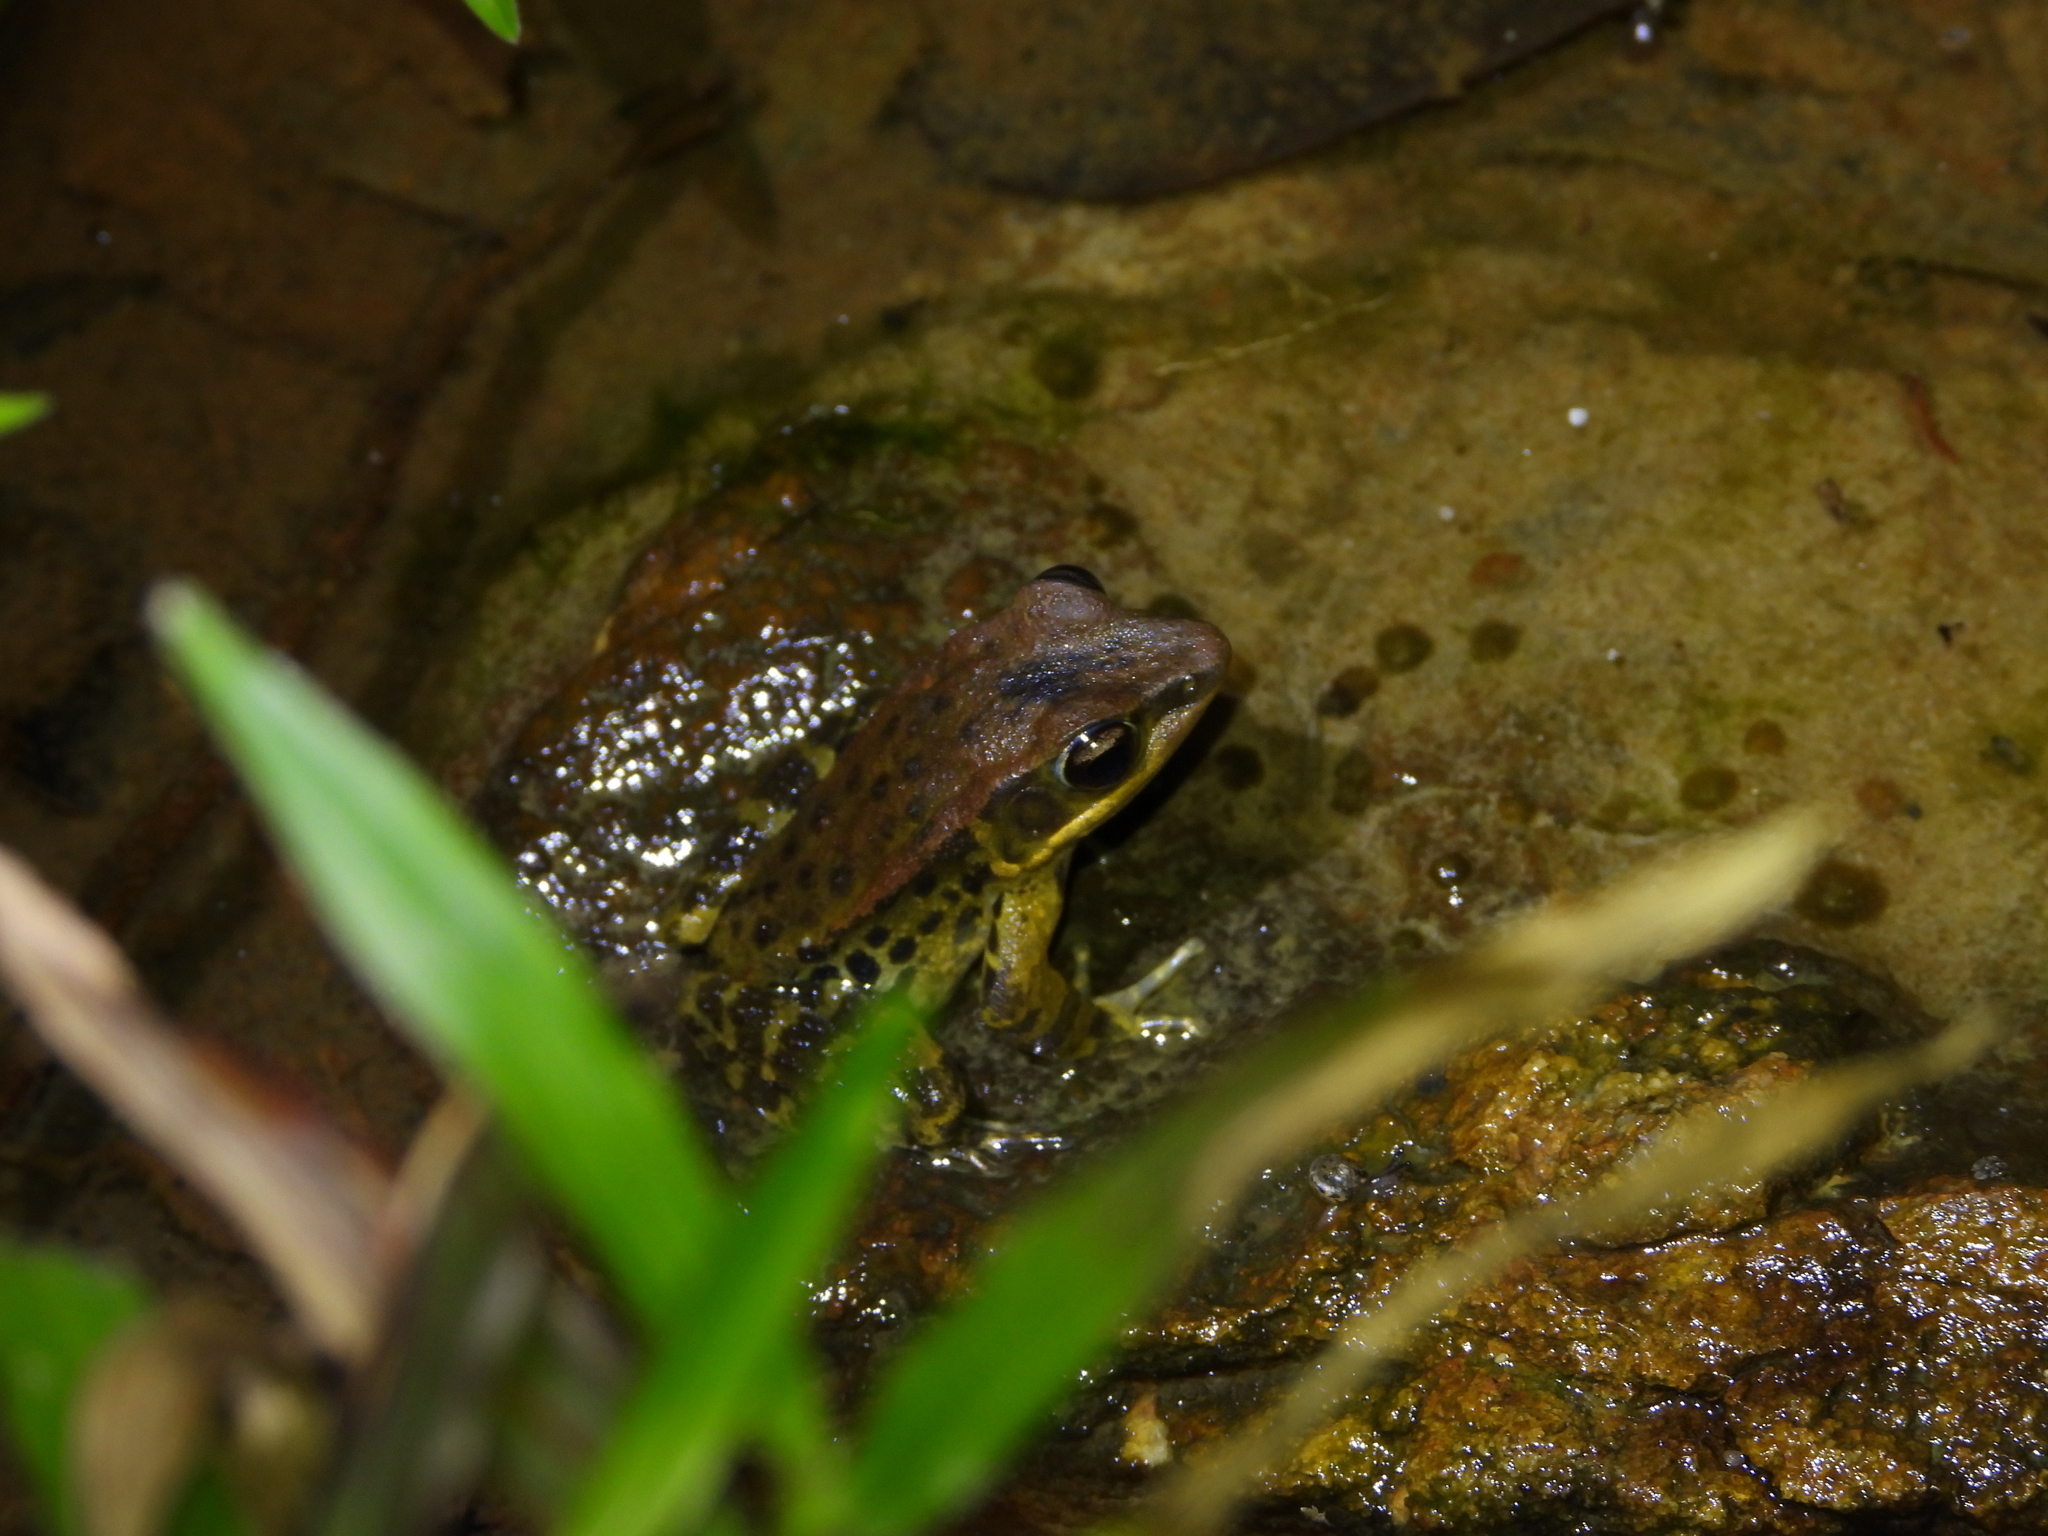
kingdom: Animalia
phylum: Chordata
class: Amphibia
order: Anura
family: Ranidae
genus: Hylarana
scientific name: Hylarana latouchii
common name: Broad-folded frog
